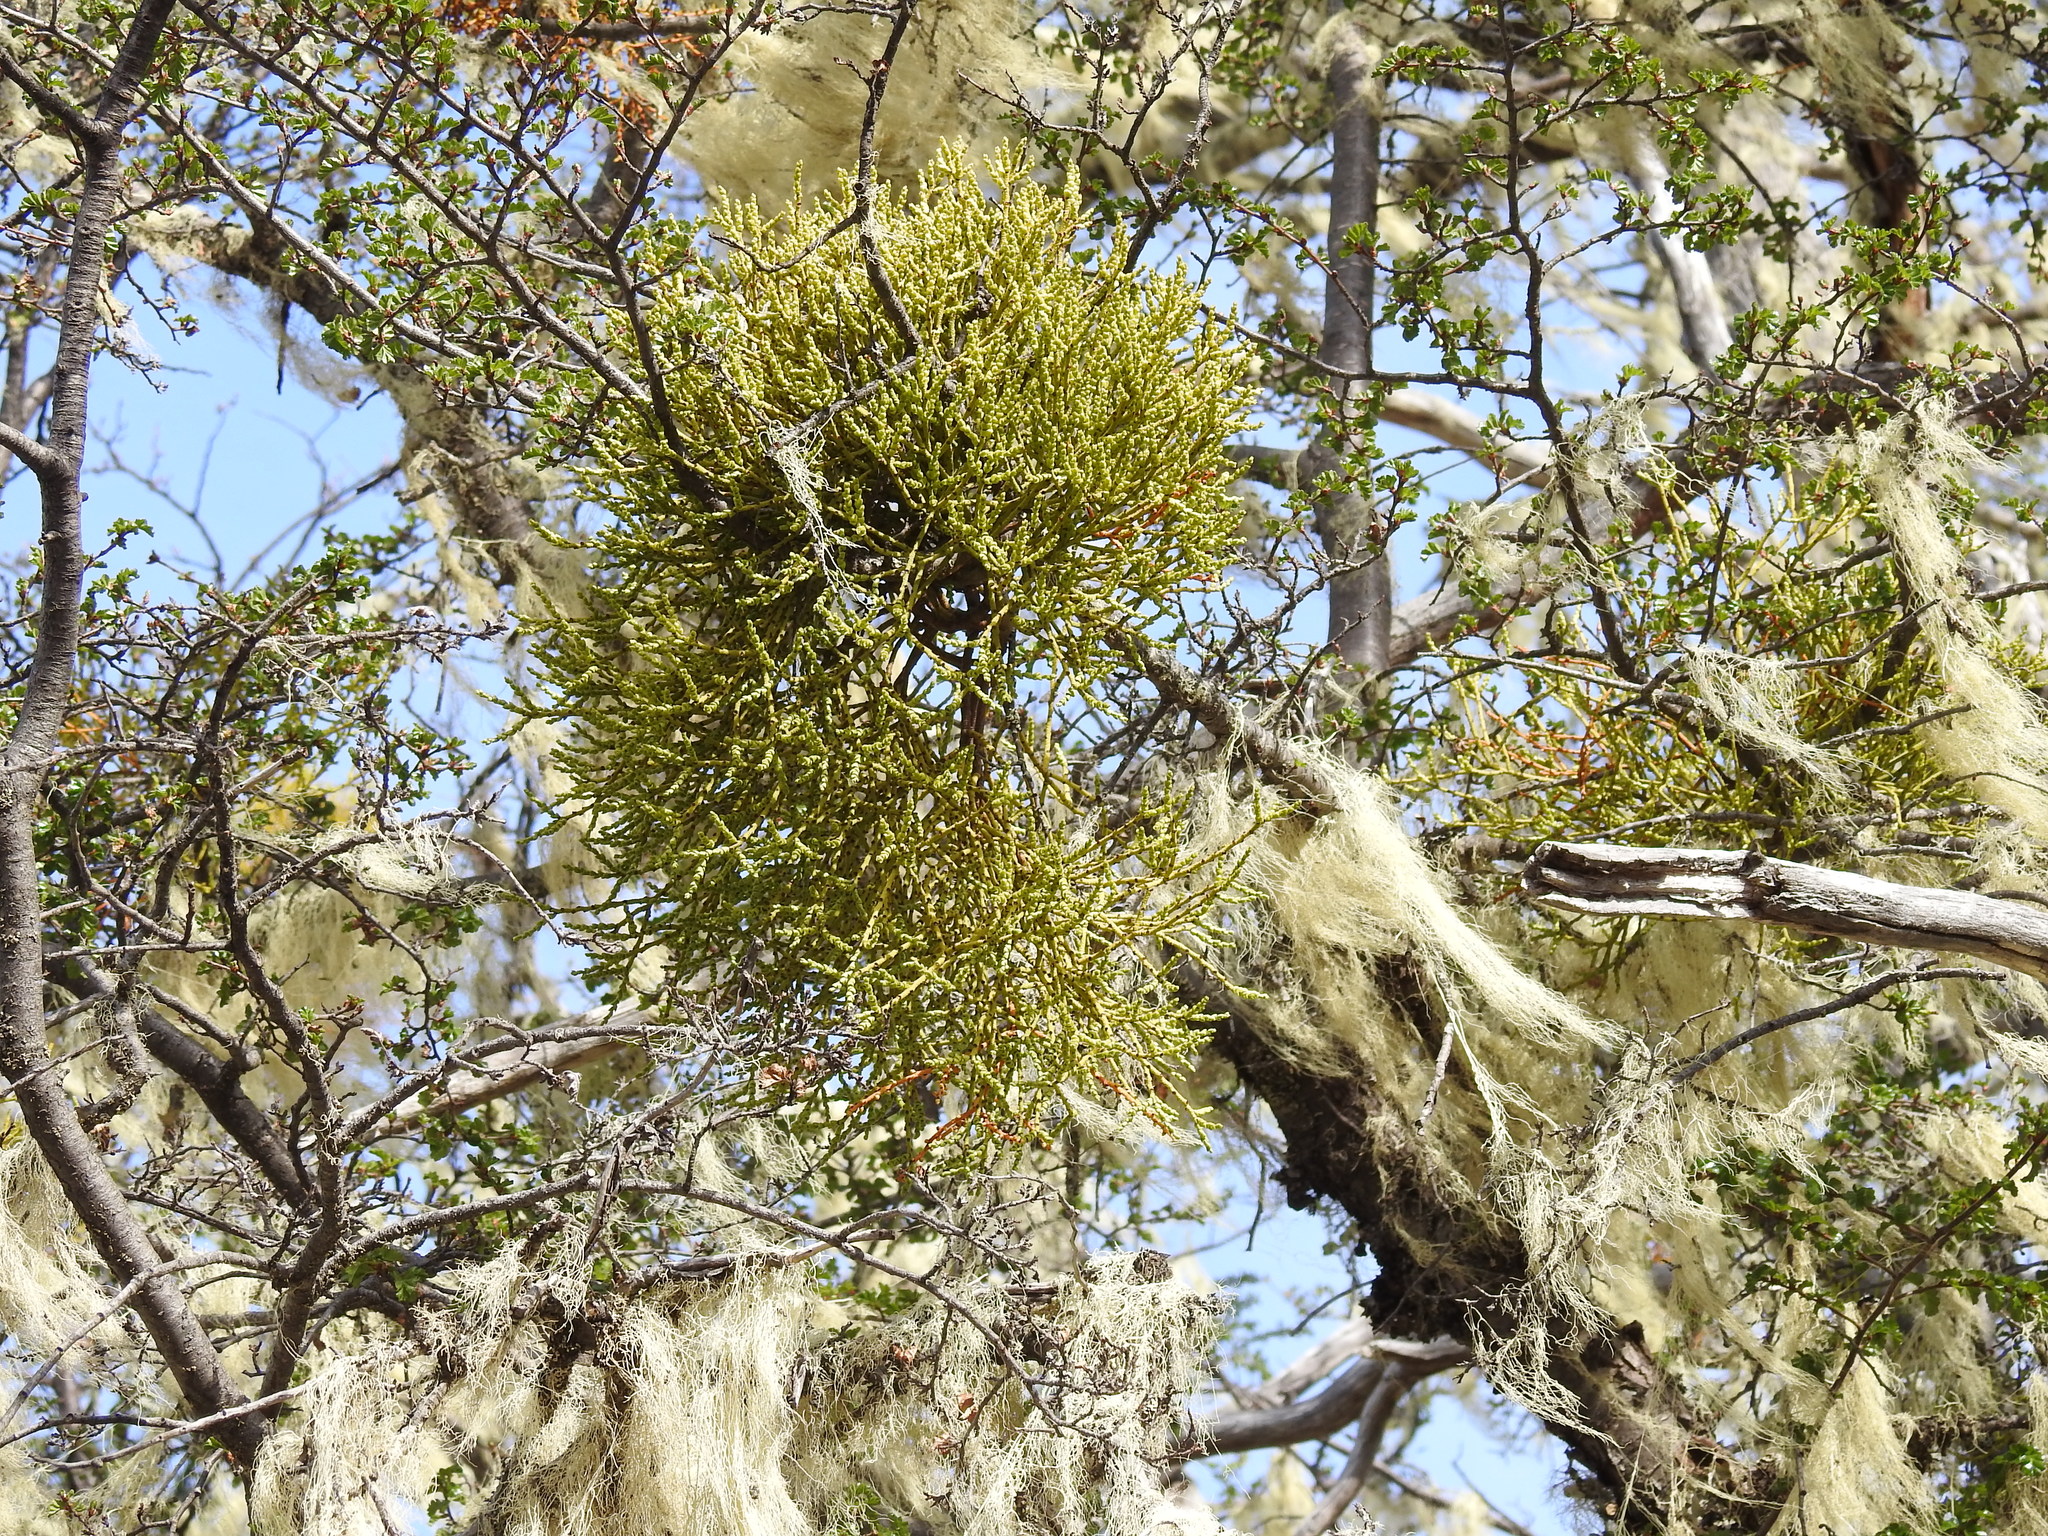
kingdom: Plantae
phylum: Tracheophyta
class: Magnoliopsida
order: Santalales
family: Misodendraceae
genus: Misodendrum
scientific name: Misodendrum punctulatum
